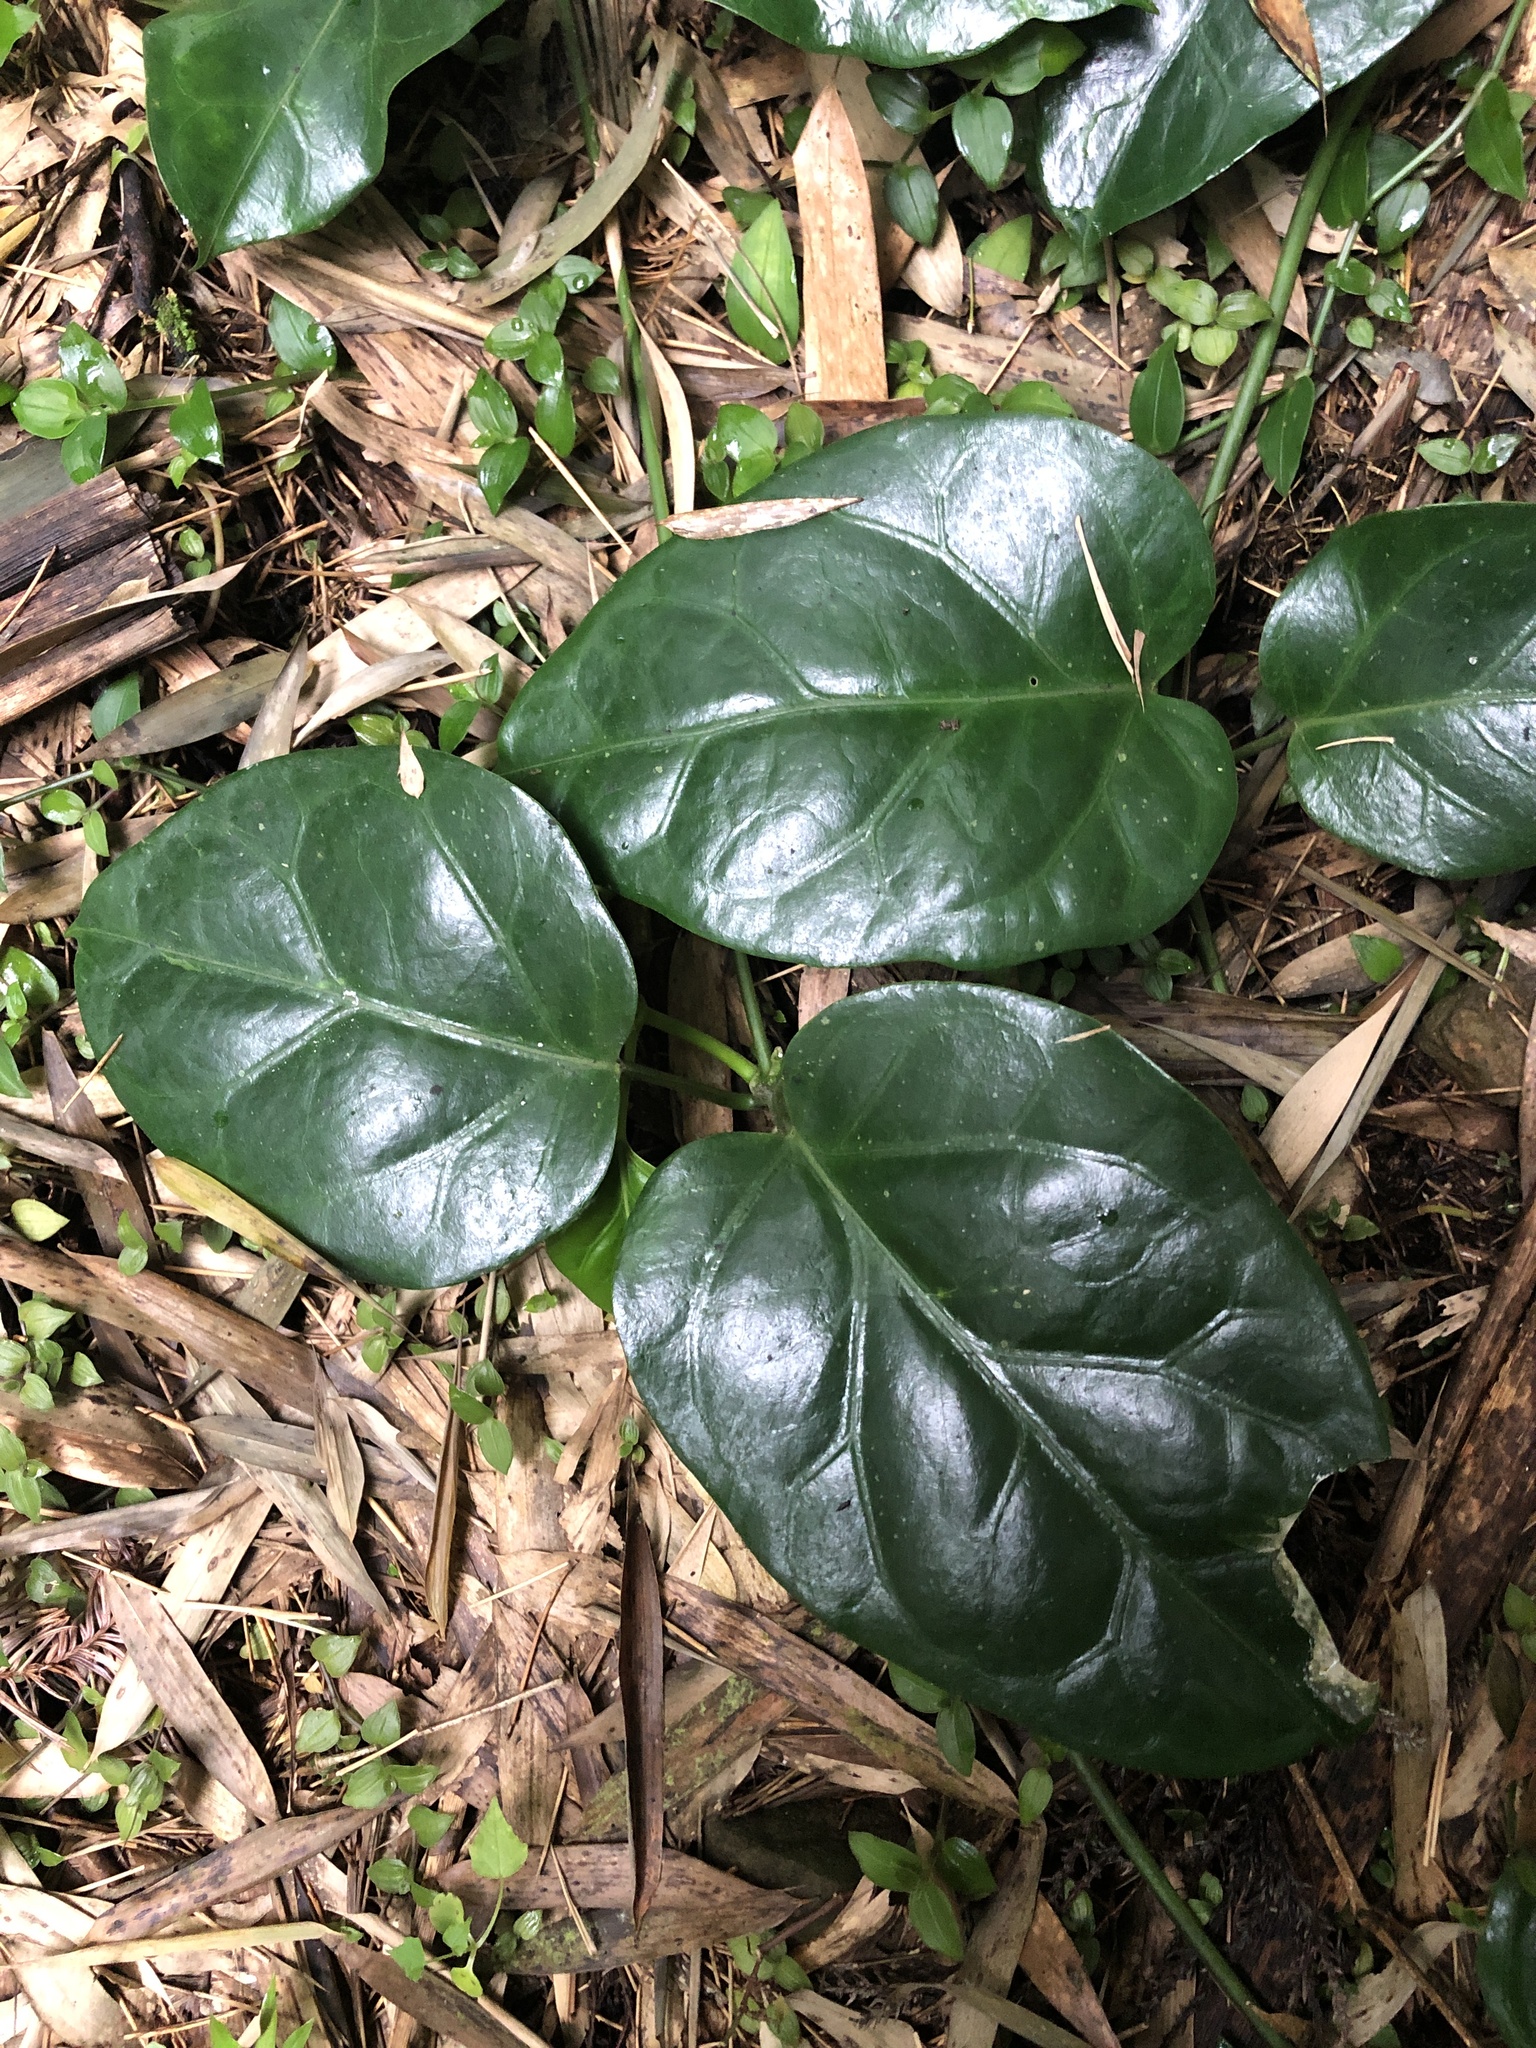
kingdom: Plantae
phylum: Tracheophyta
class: Magnoliopsida
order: Gentianales
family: Apocynaceae
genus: Sinomarsdenia
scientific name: Sinomarsdenia formosana
